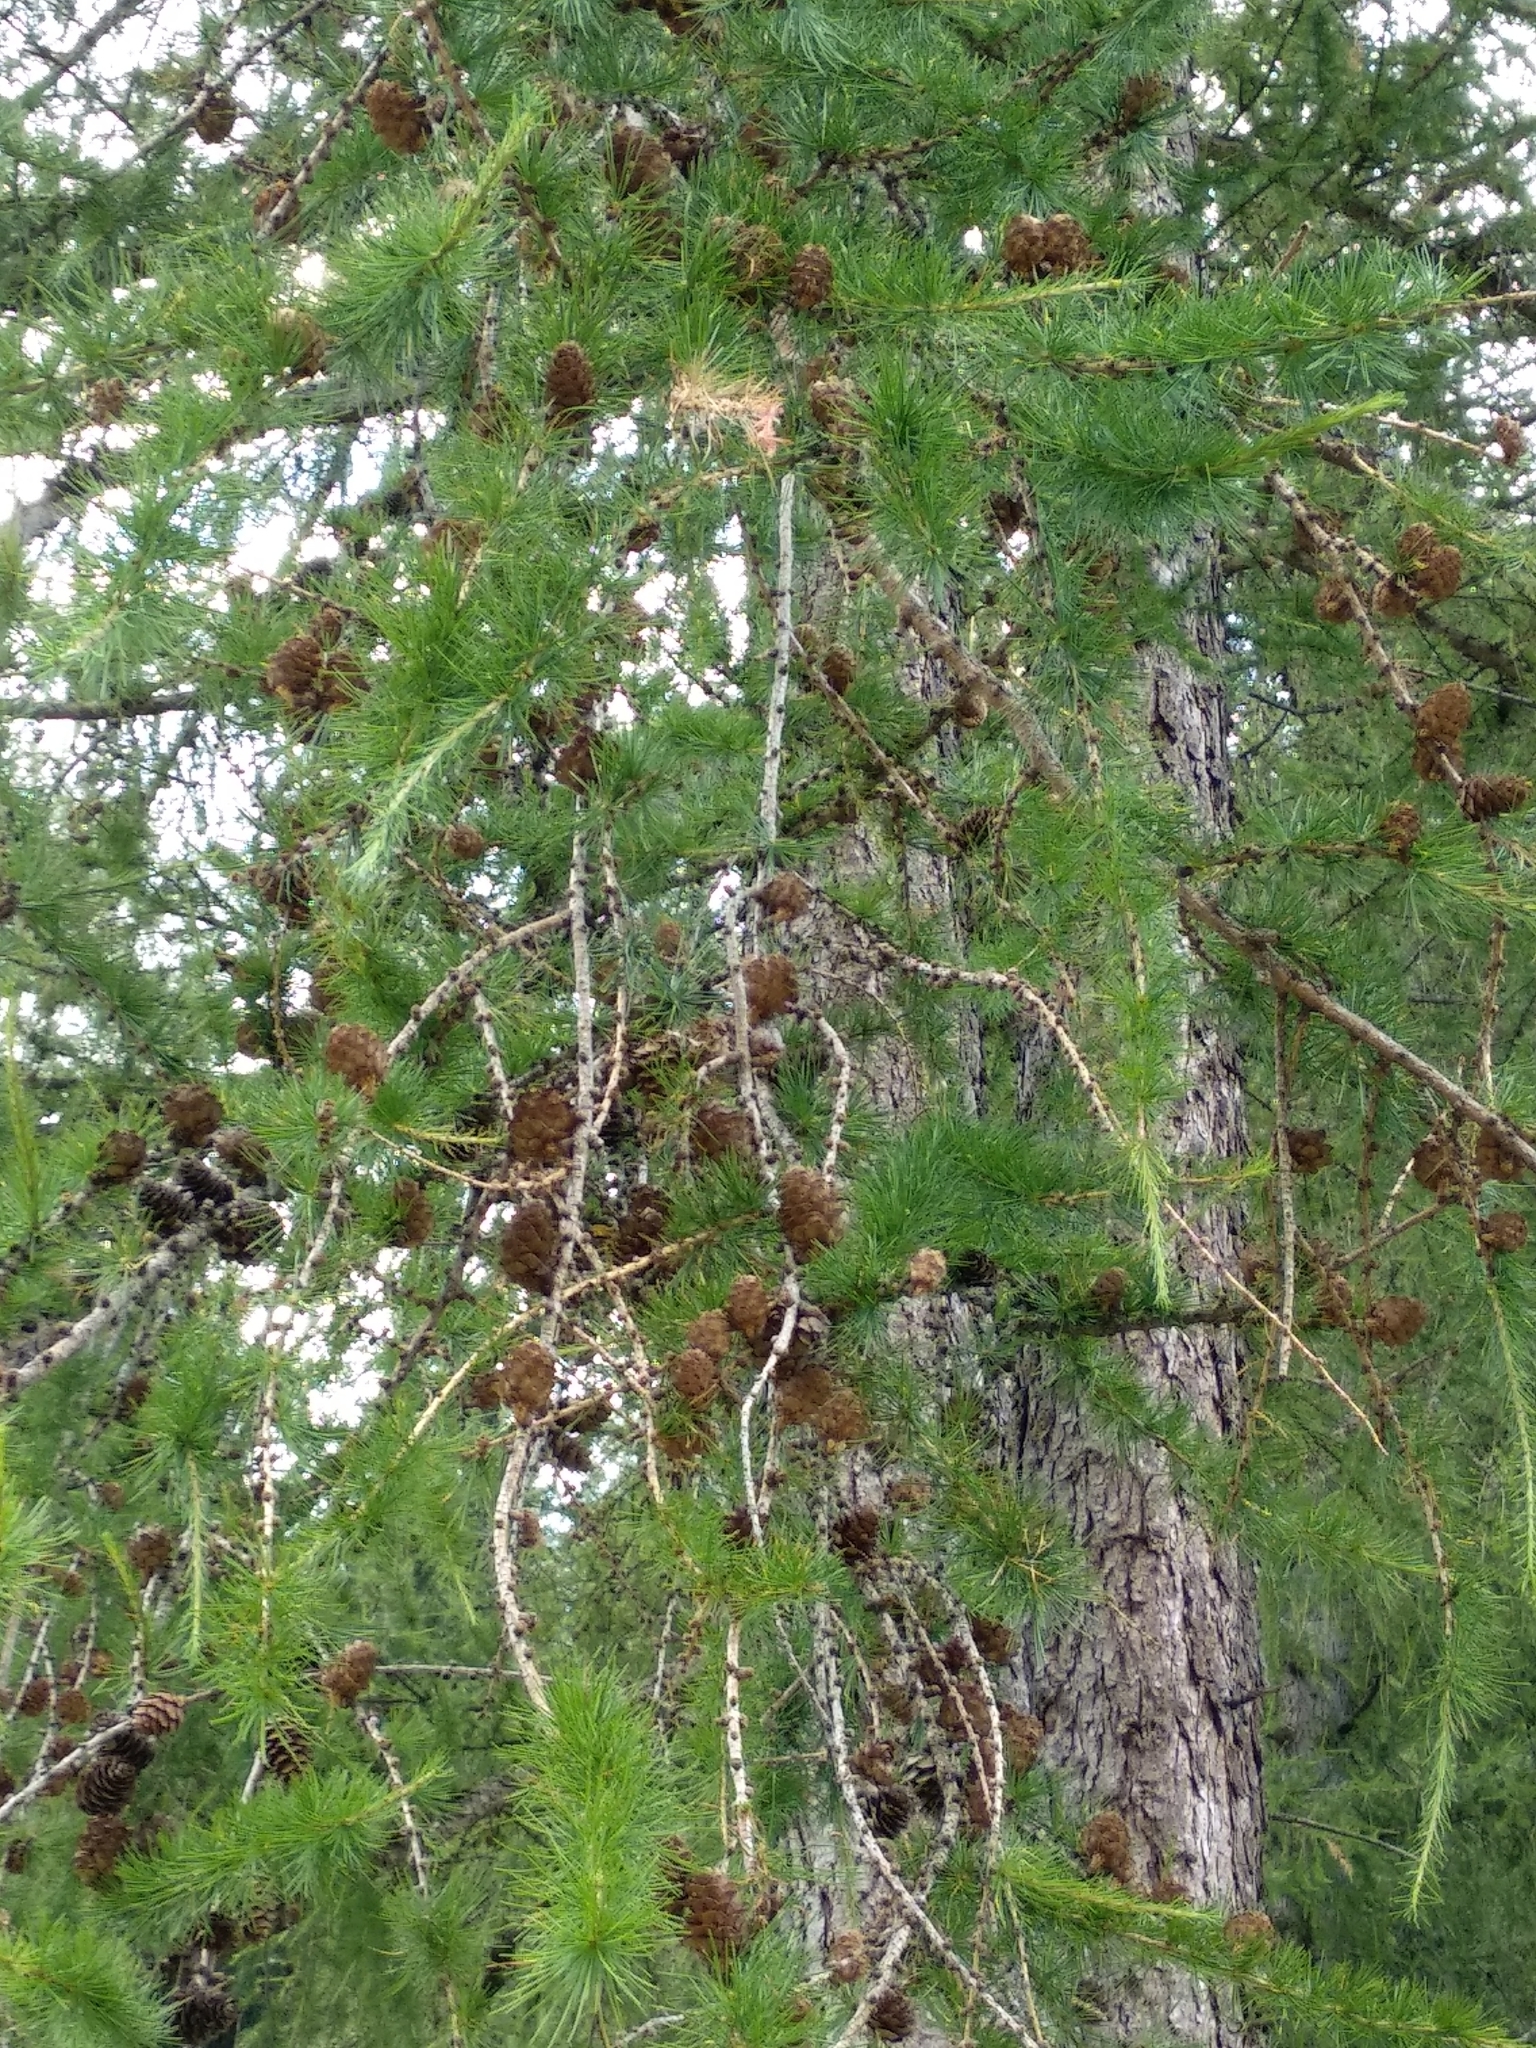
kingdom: Plantae
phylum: Tracheophyta
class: Pinopsida
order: Pinales
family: Pinaceae
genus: Larix
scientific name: Larix decidua
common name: European larch
